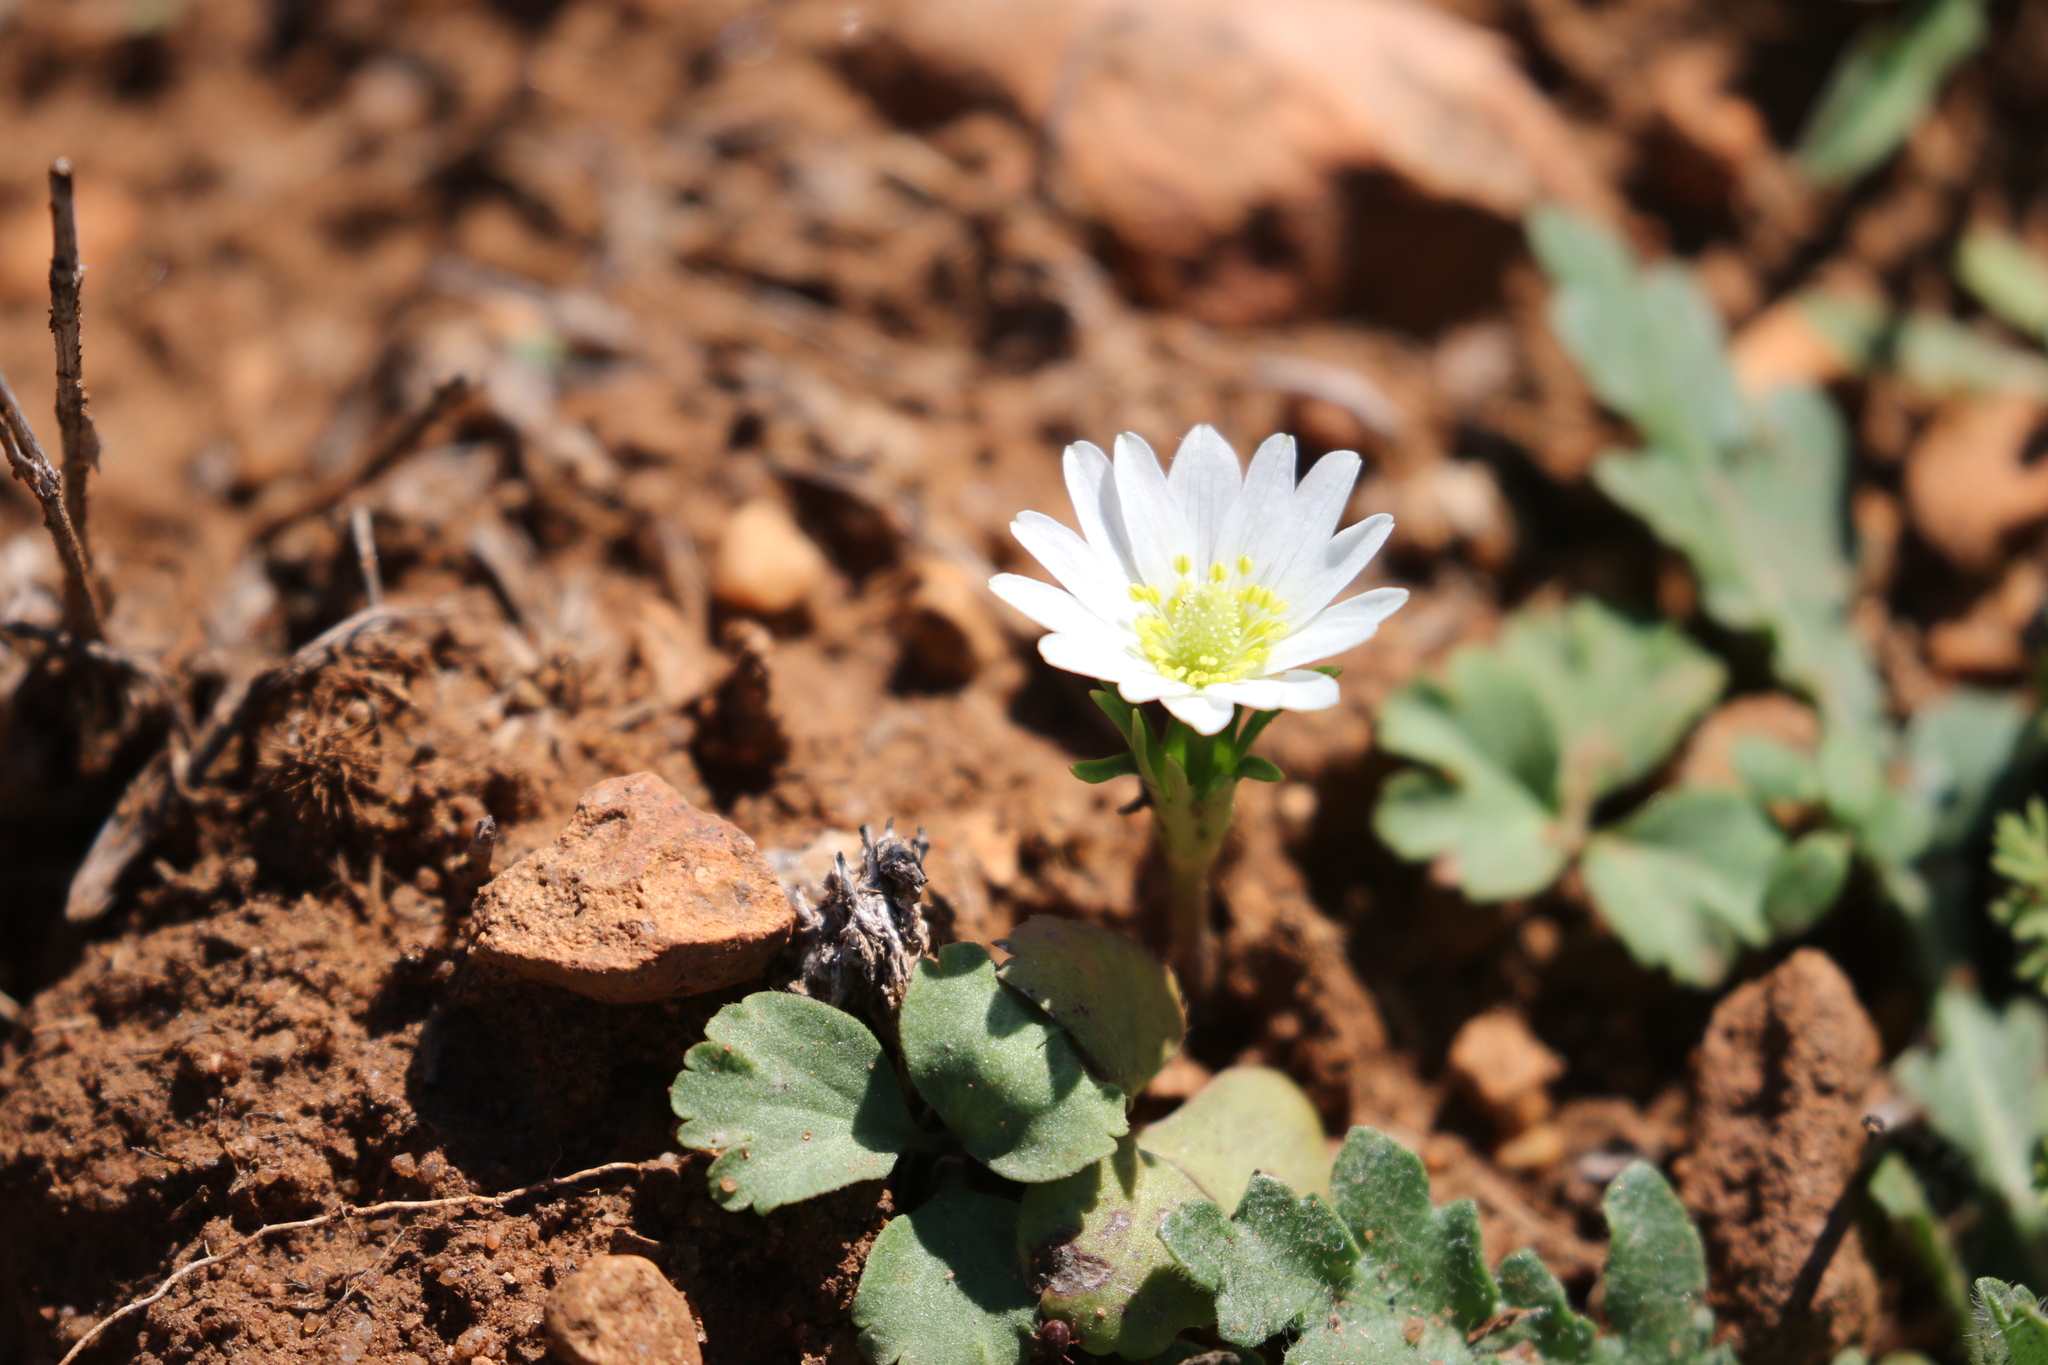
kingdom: Plantae
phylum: Tracheophyta
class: Magnoliopsida
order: Ranunculales
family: Ranunculaceae
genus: Anemone
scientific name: Anemone berlandieri
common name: Ten-petal anemone
